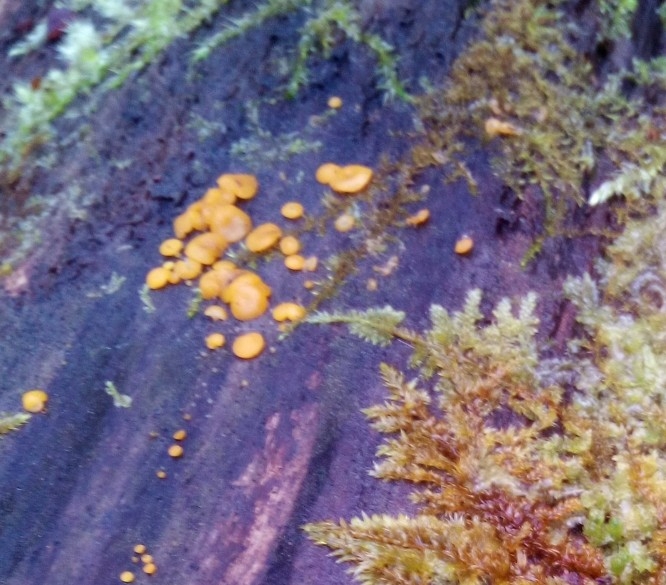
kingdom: Fungi
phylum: Basidiomycota
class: Dacrymycetes
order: Dacrymycetales
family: Dacrymycetaceae
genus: Dacrymyces
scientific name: Dacrymyces stillatus
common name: Common jelly spot
